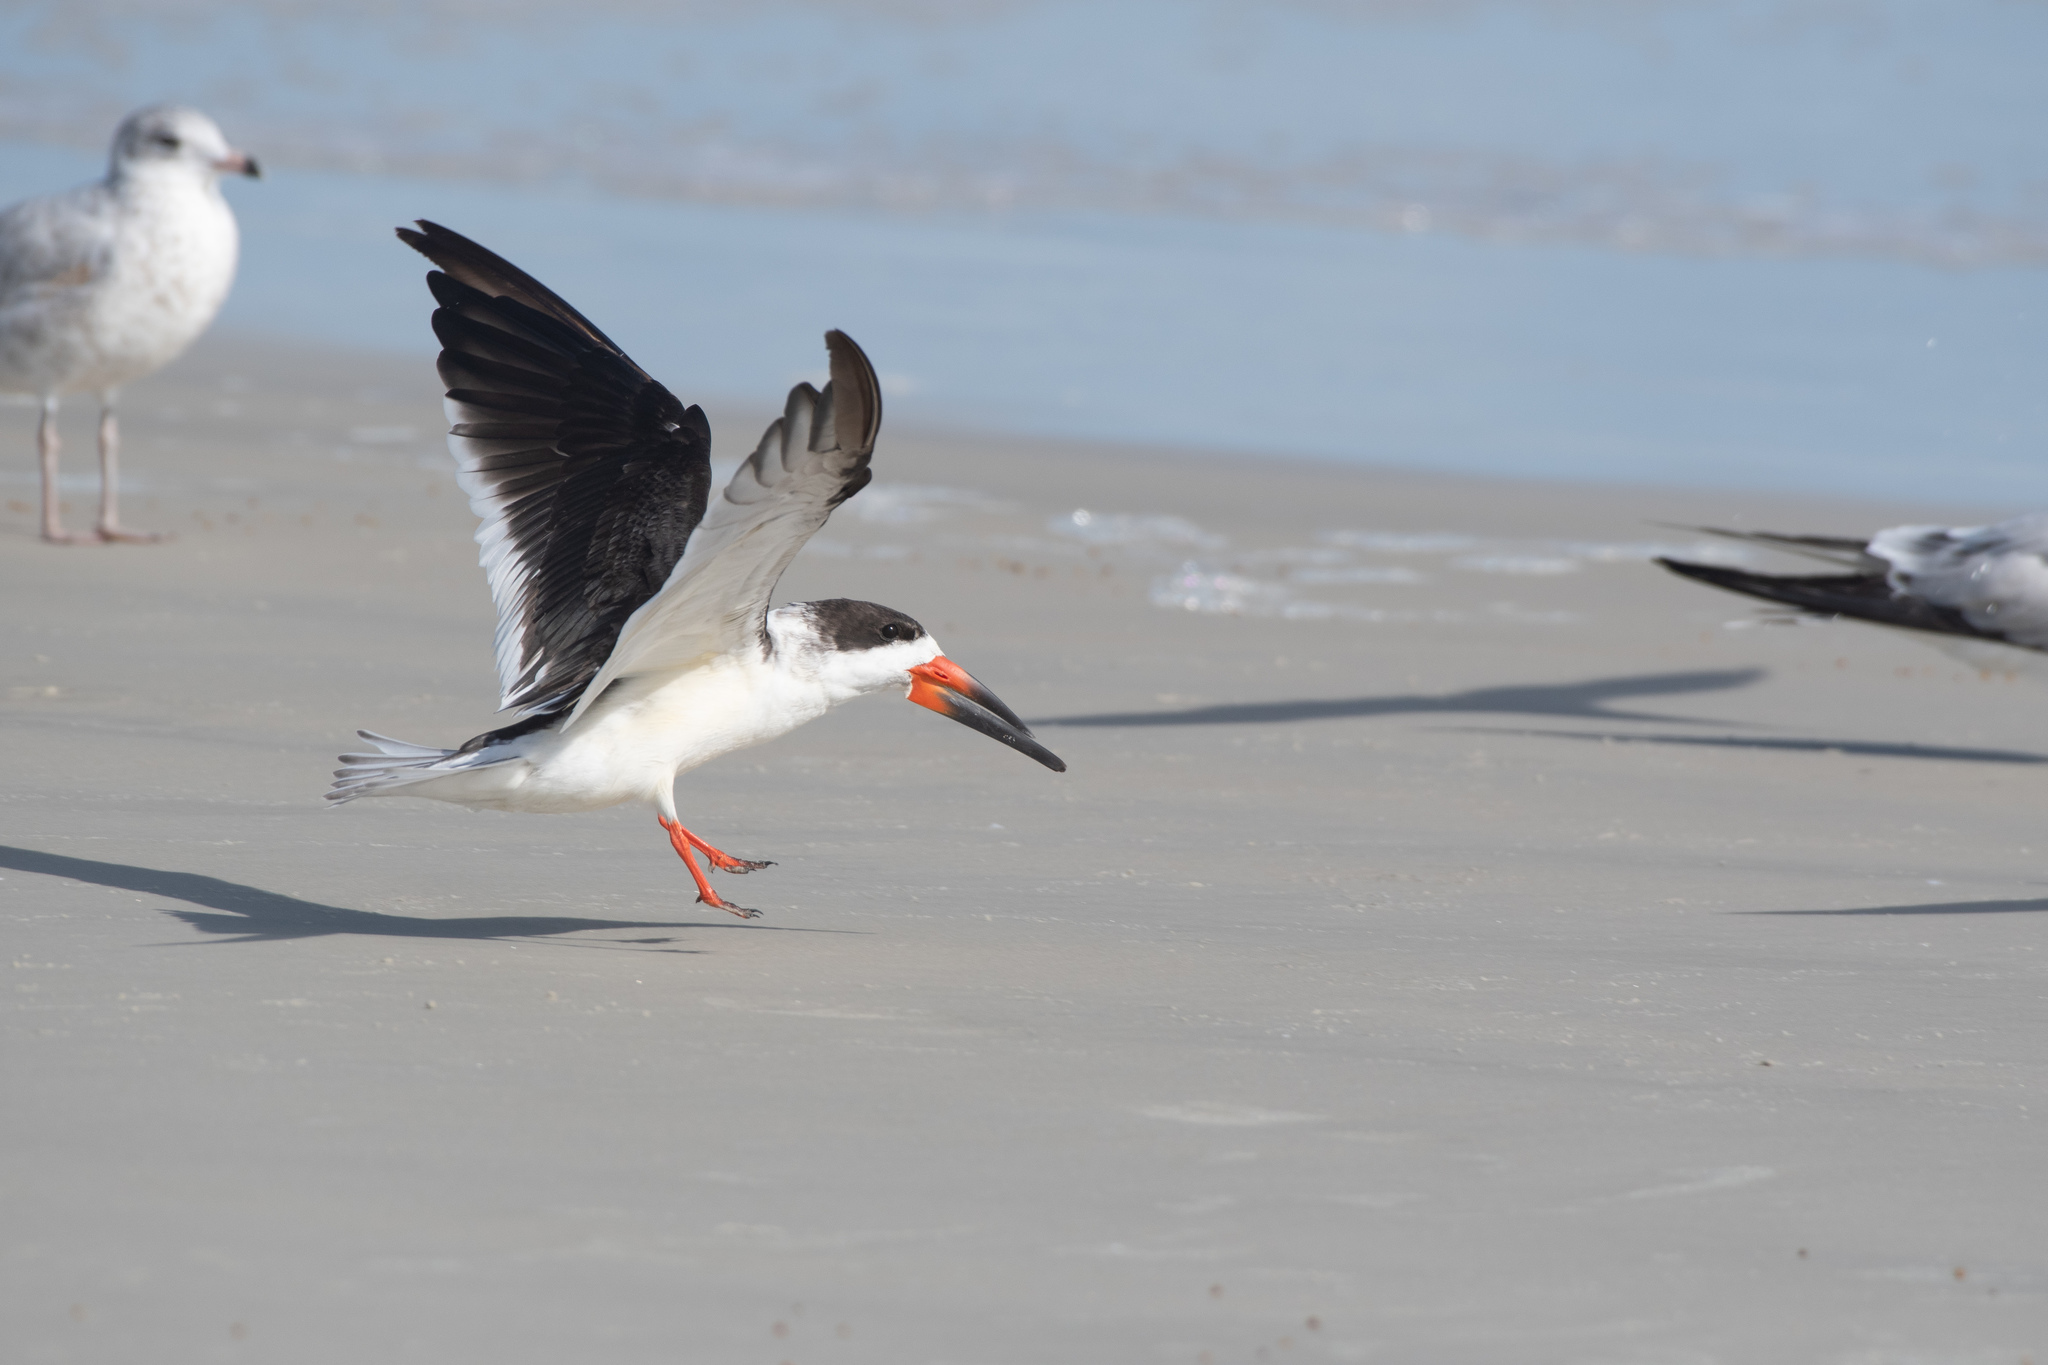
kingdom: Animalia
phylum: Chordata
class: Aves
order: Charadriiformes
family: Laridae
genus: Rynchops
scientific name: Rynchops niger
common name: Black skimmer
